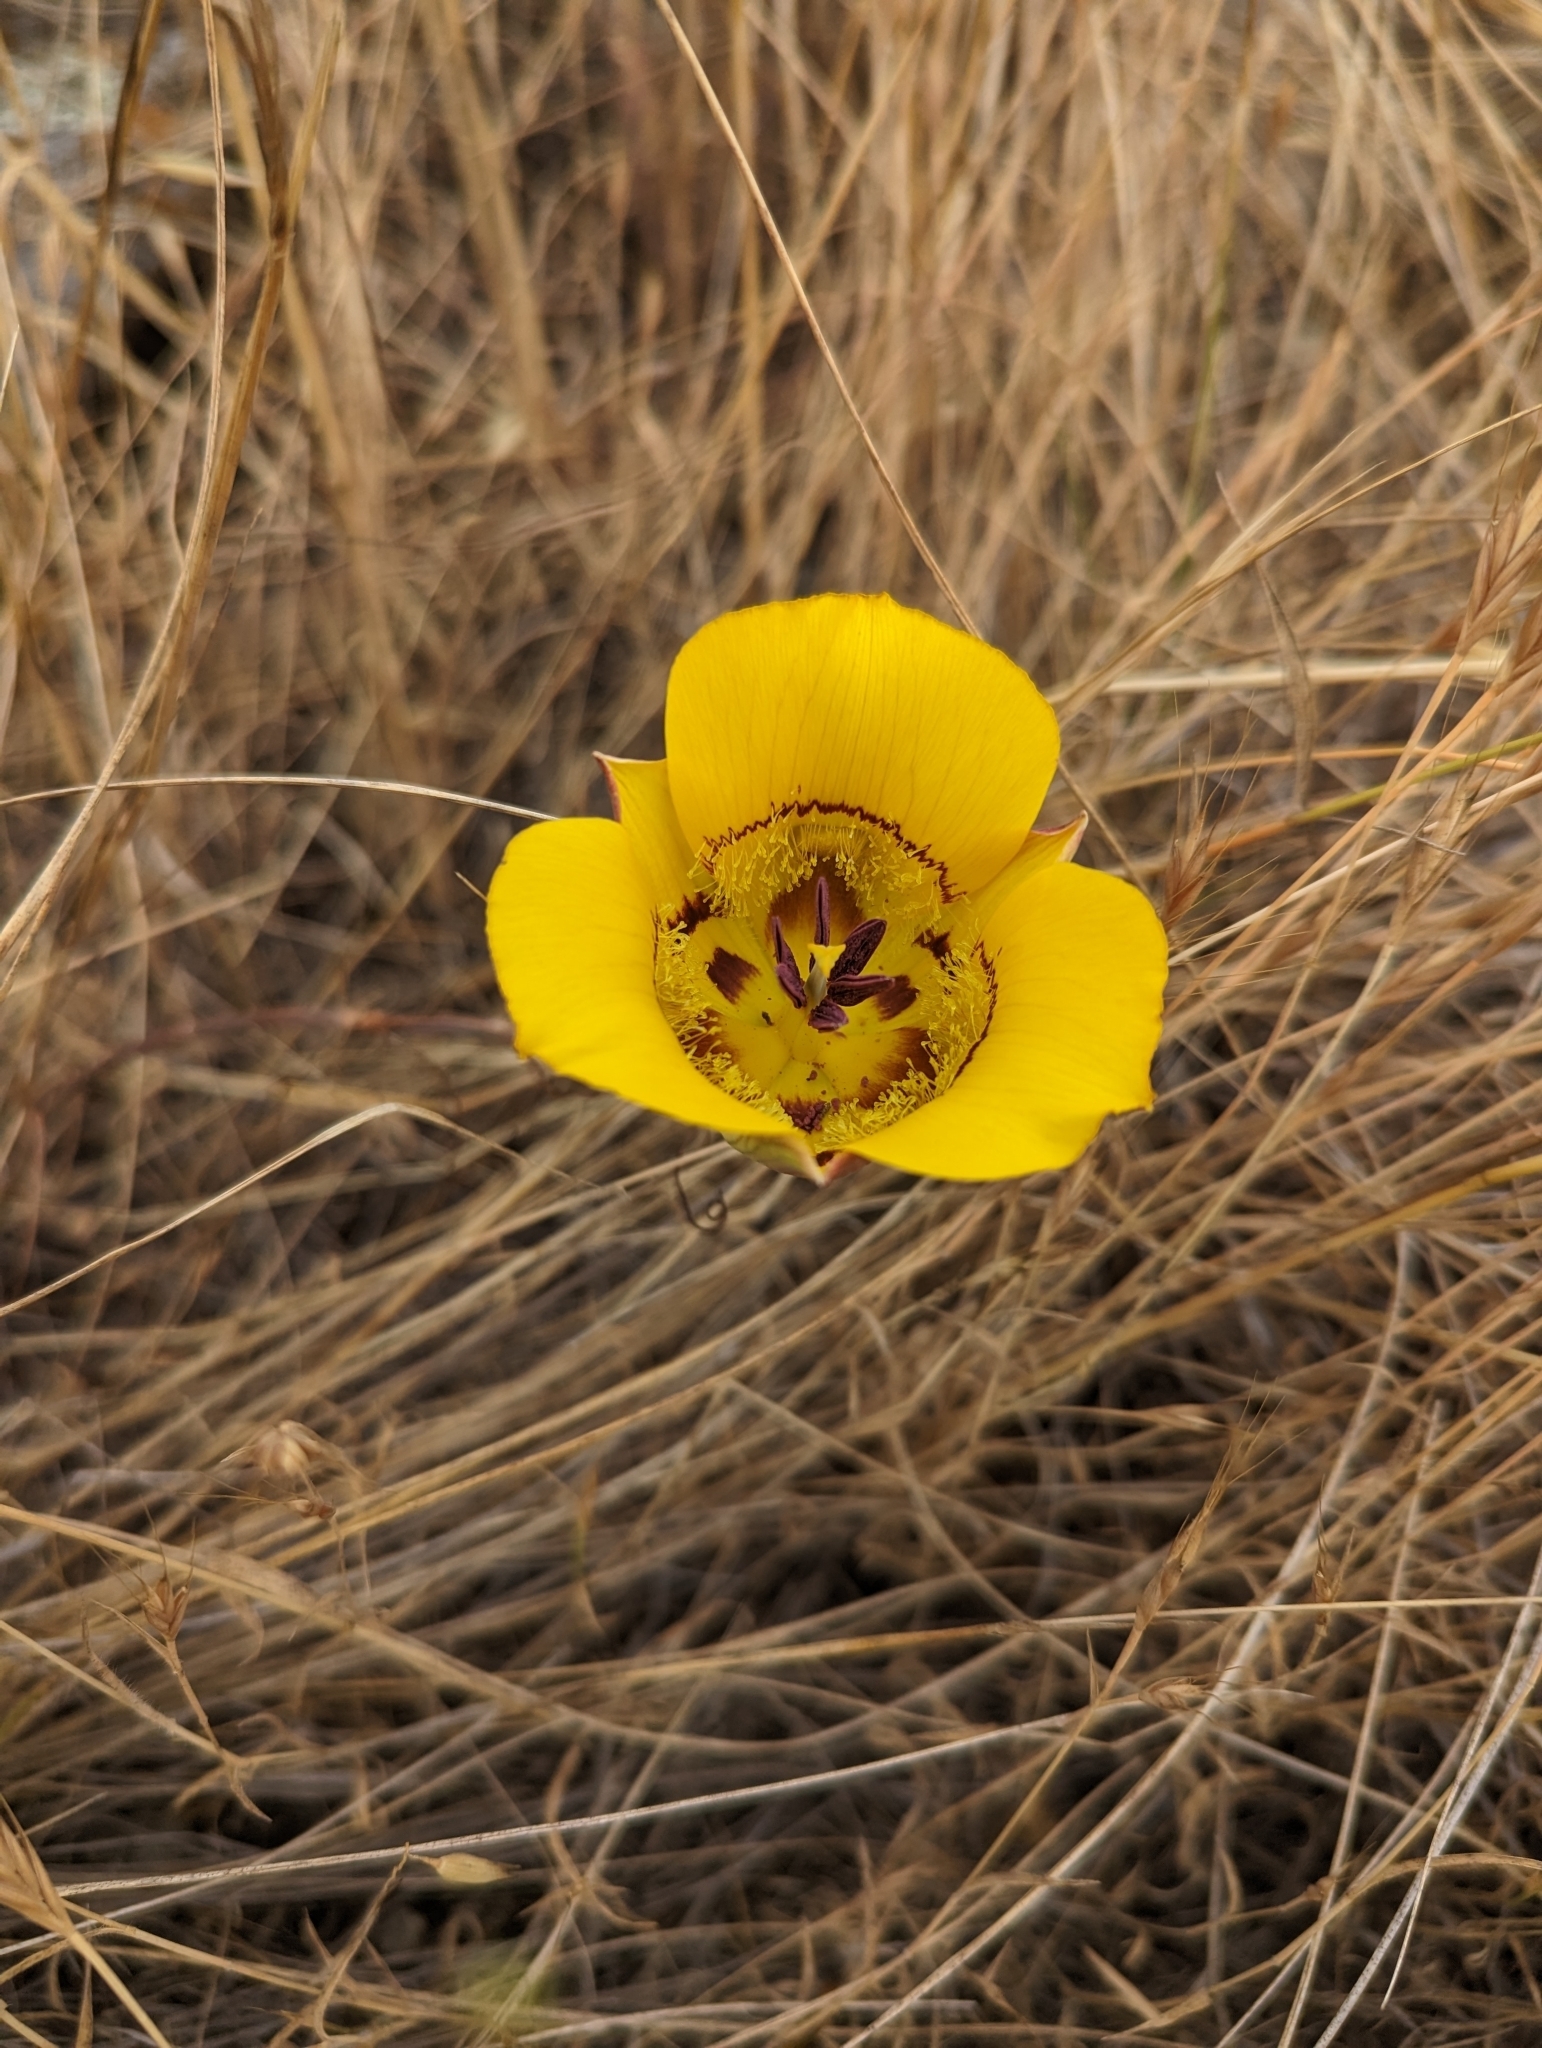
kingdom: Plantae
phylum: Tracheophyta
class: Liliopsida
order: Liliales
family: Liliaceae
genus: Calochortus
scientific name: Calochortus clavatus
